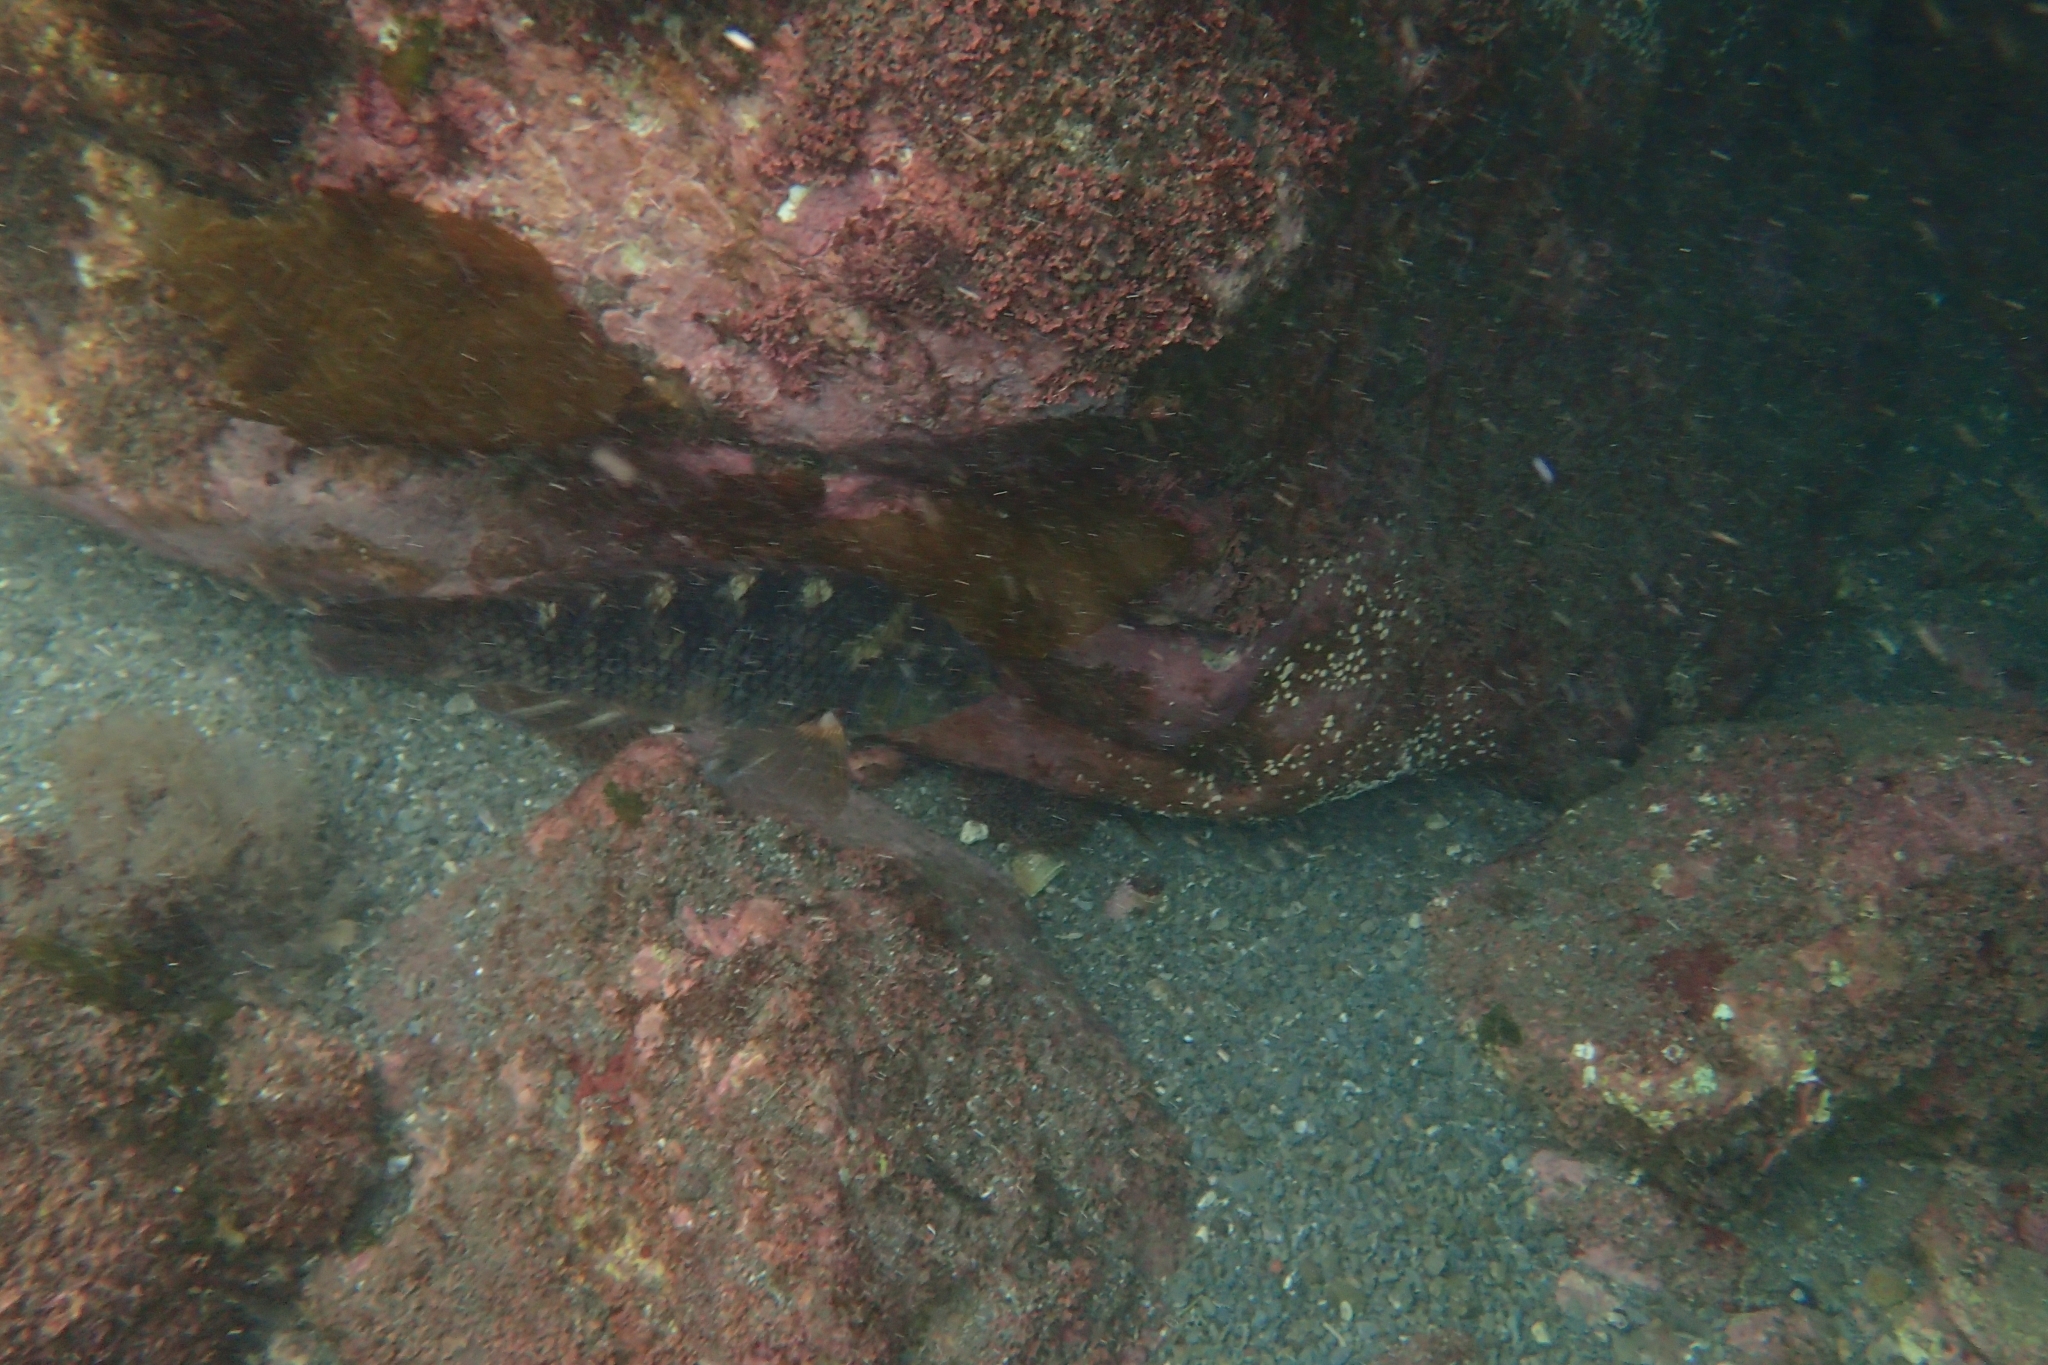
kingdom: Animalia
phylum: Chordata
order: Perciformes
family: Labridae
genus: Notolabrus
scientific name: Notolabrus fucicola
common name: Banded parrotfish
